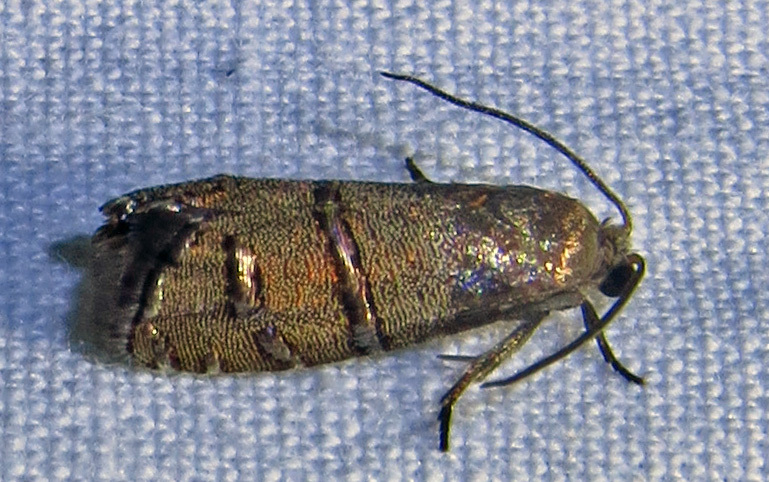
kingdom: Animalia
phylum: Arthropoda
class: Insecta
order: Lepidoptera
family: Tortricidae
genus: Cydia
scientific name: Cydia toreuta
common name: Eastern pine seedworm moth
